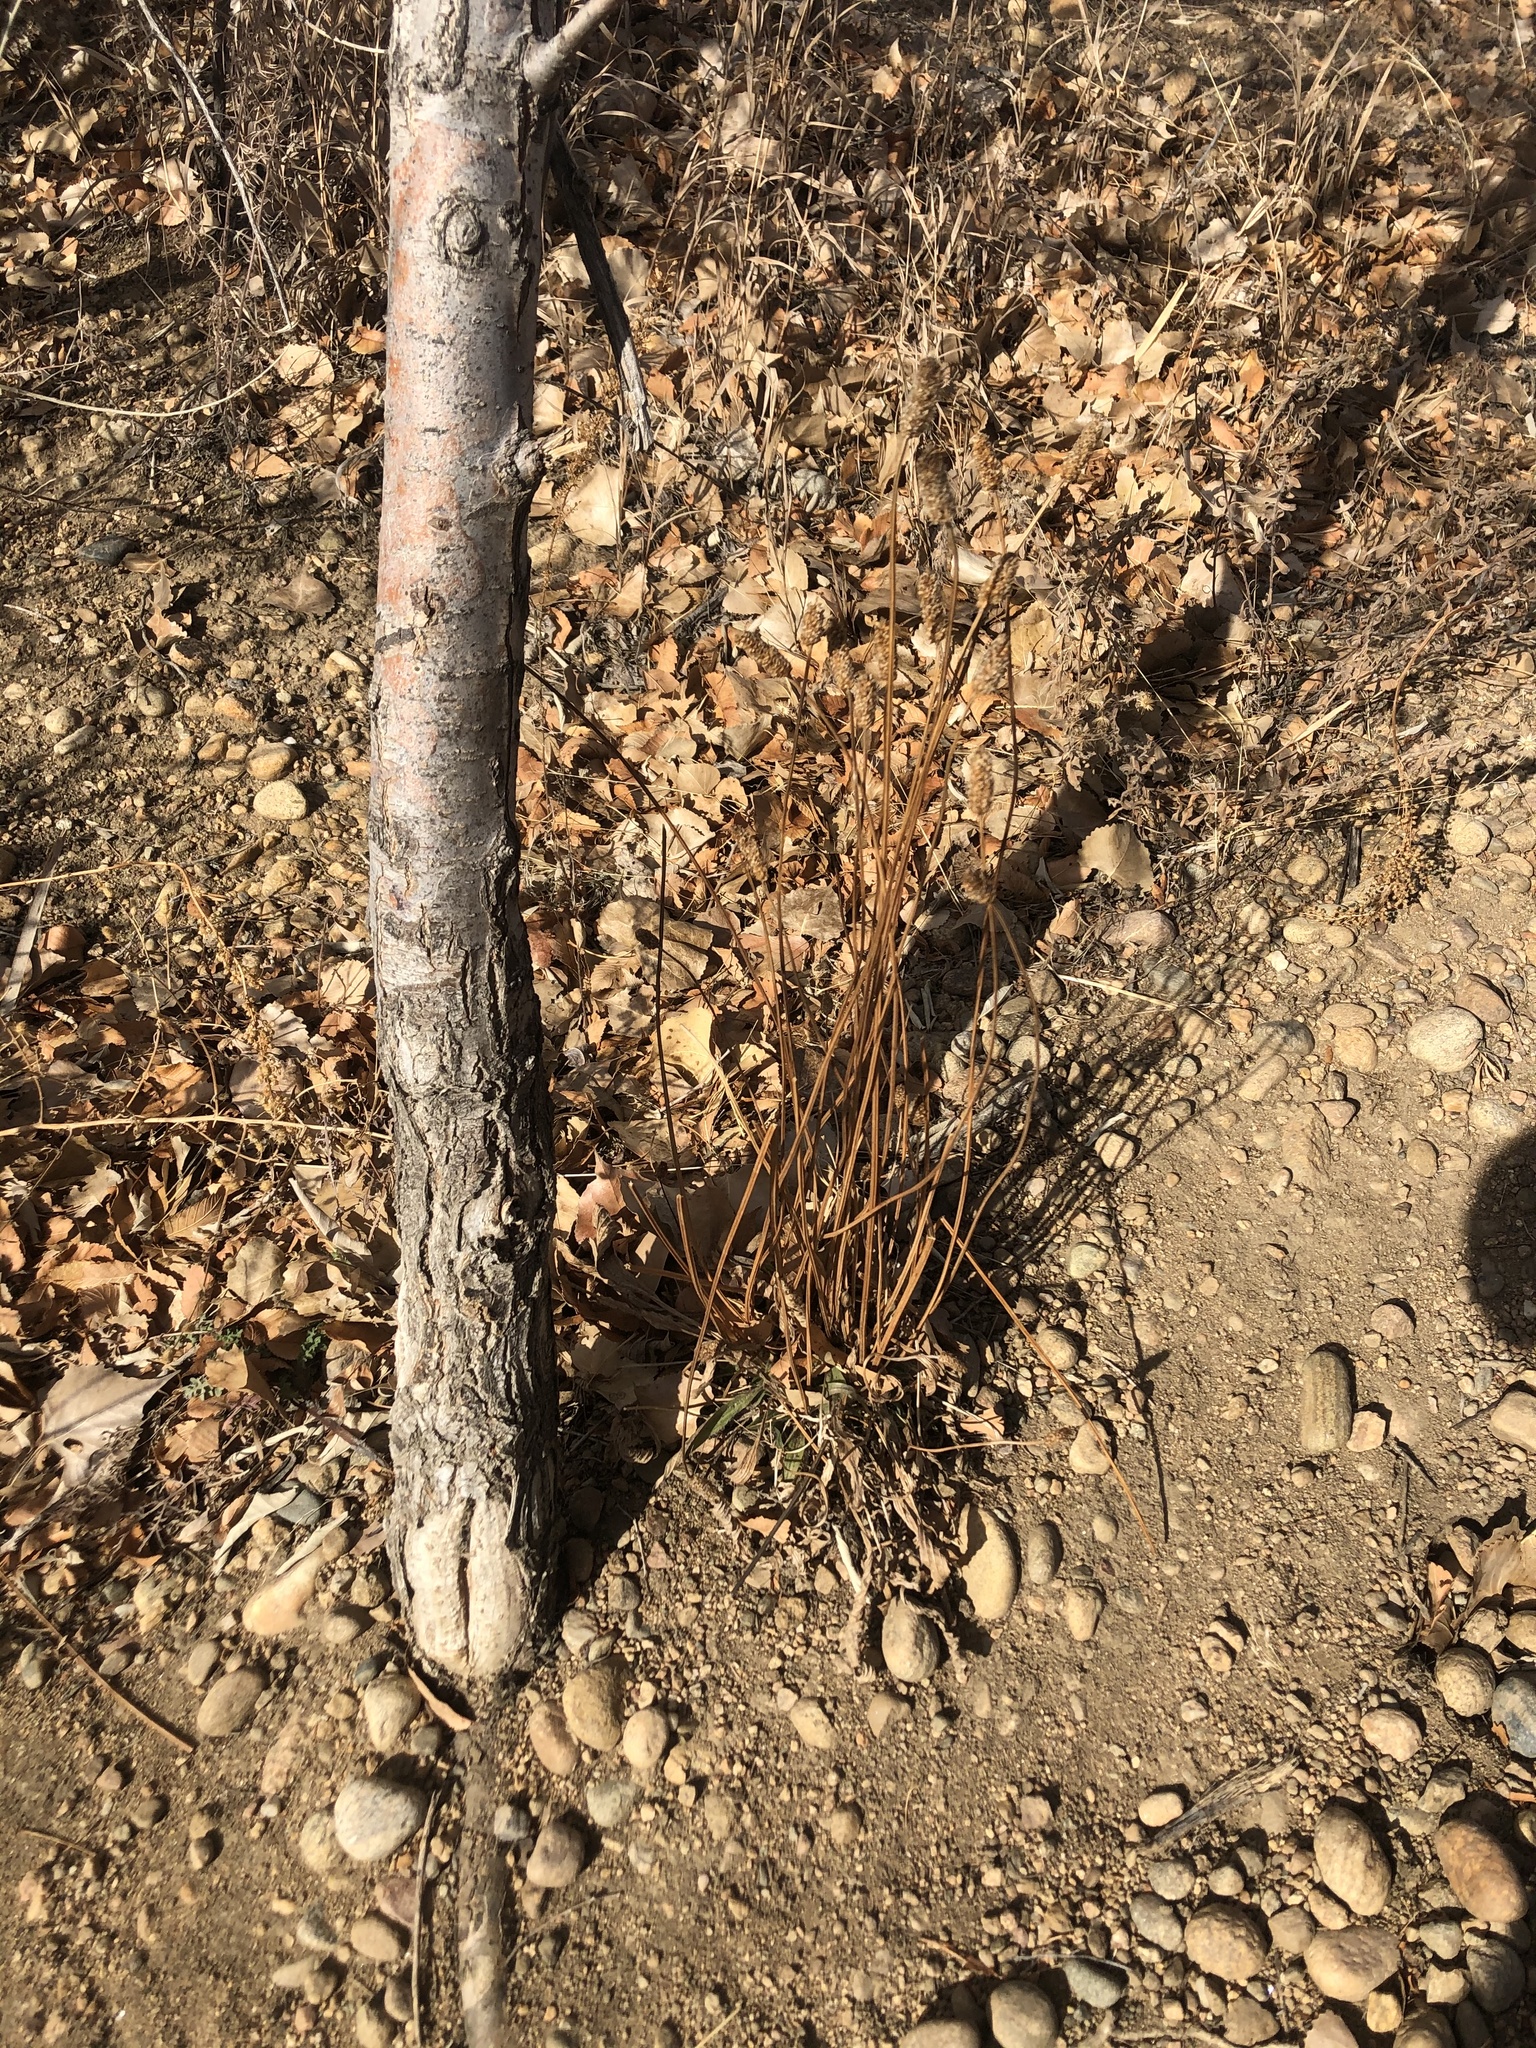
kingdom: Plantae
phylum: Tracheophyta
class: Magnoliopsida
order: Lamiales
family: Plantaginaceae
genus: Plantago
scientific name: Plantago lanceolata
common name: Ribwort plantain
